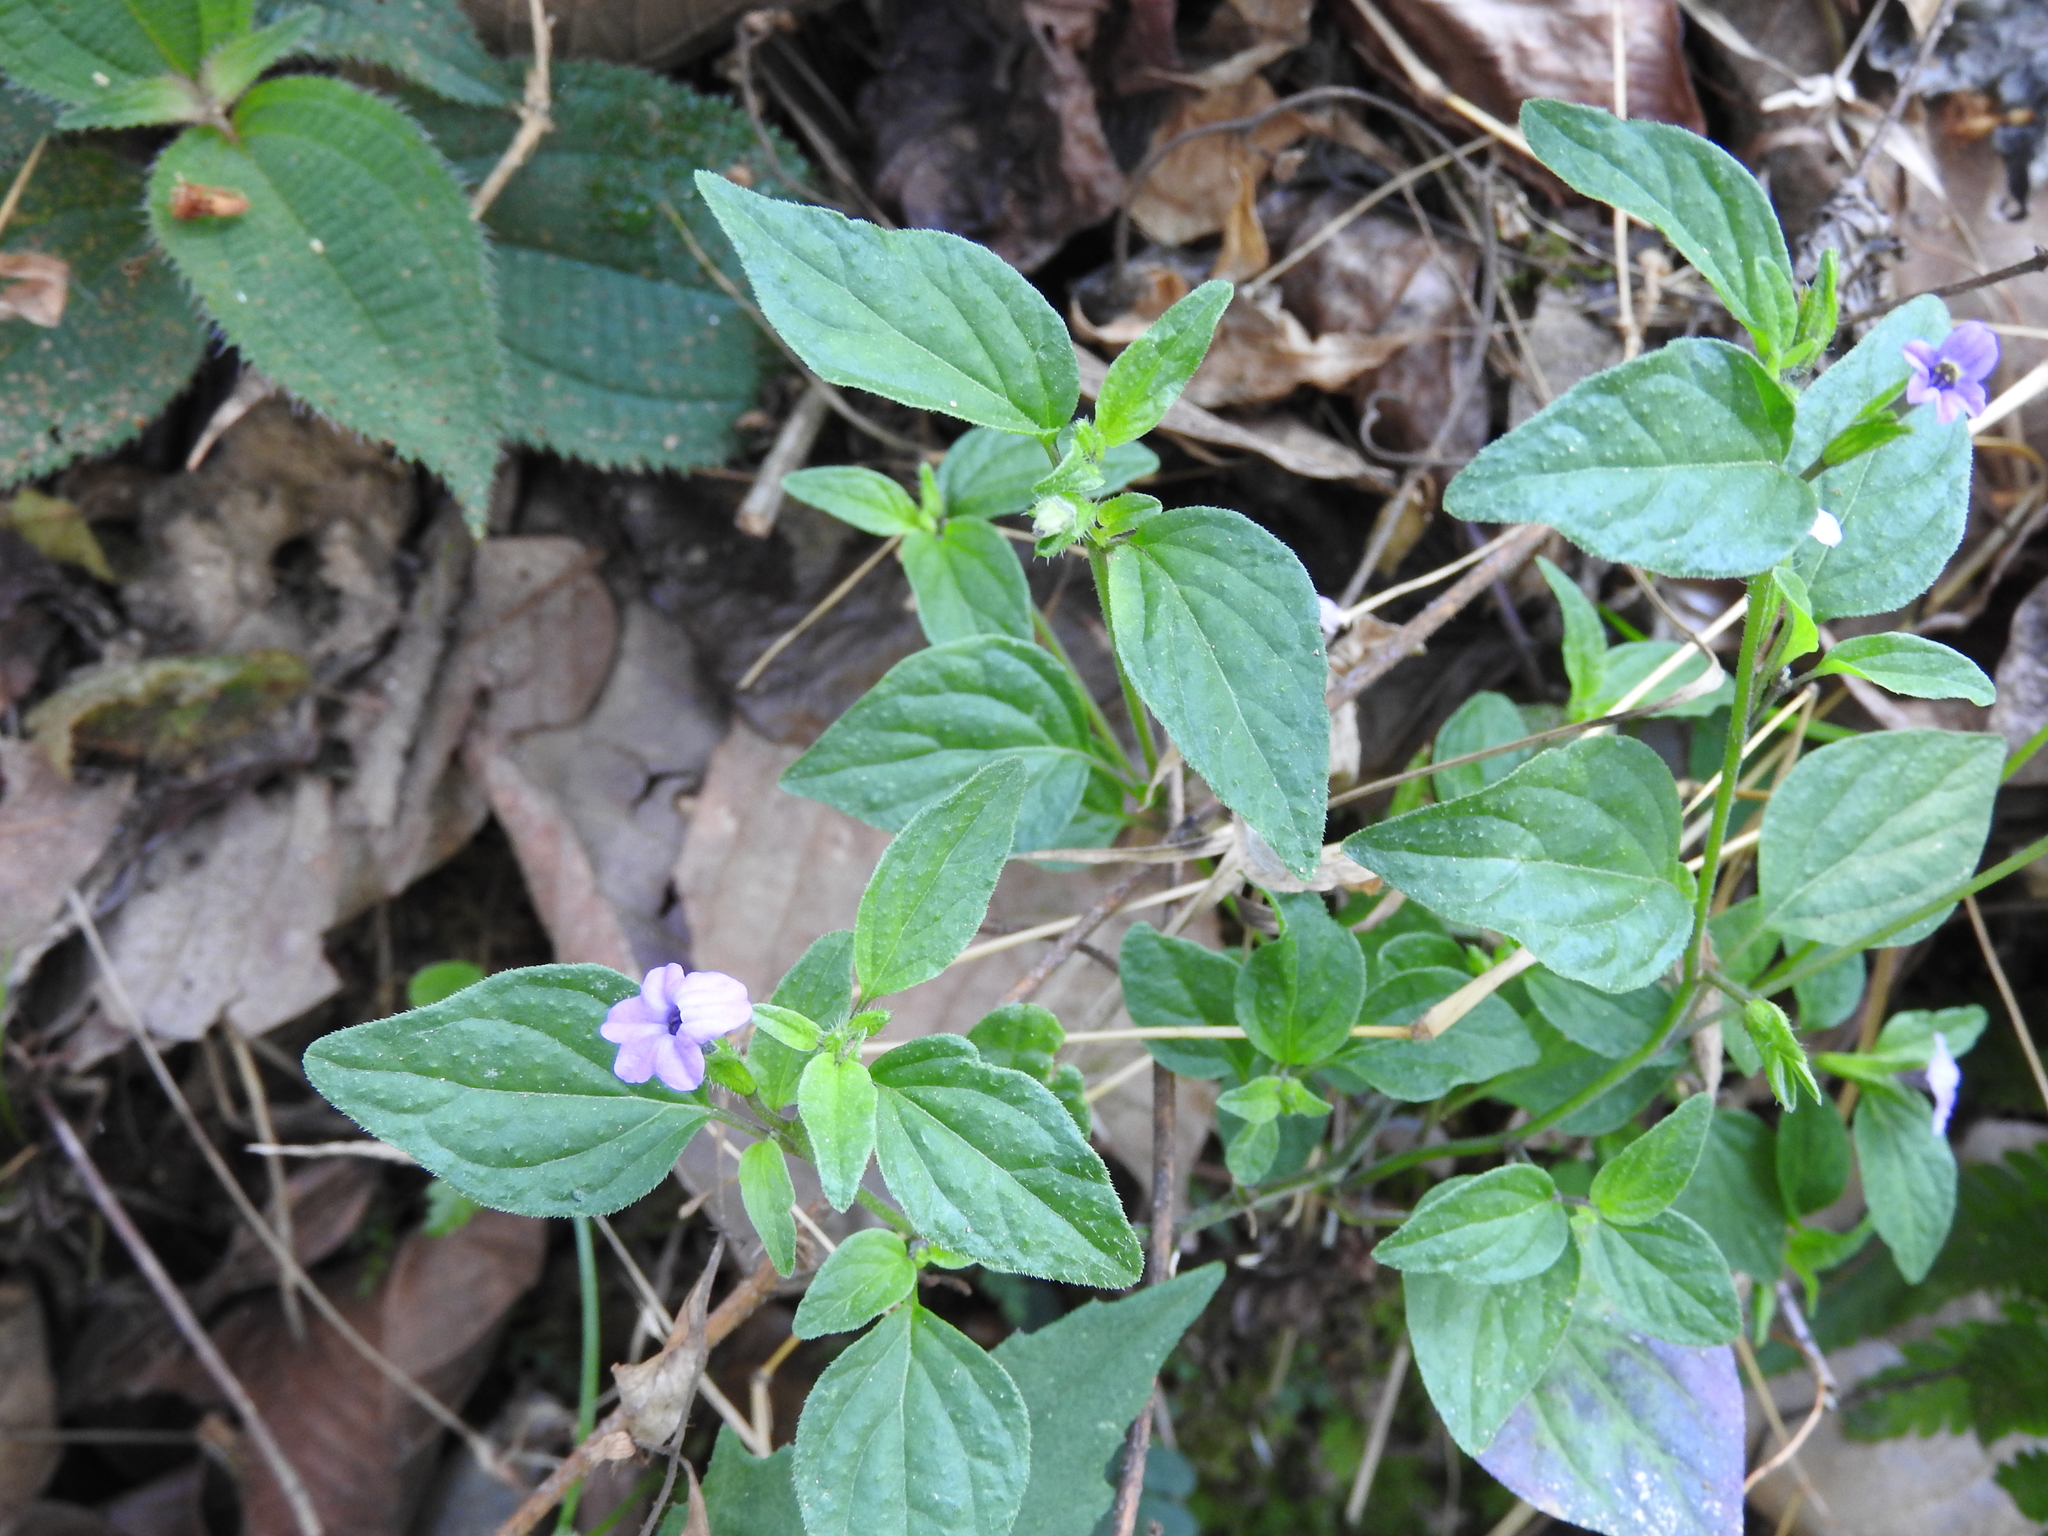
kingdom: Plantae
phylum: Tracheophyta
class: Magnoliopsida
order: Solanales
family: Solanaceae
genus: Browallia
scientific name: Browallia americana
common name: Jamaican forget-me-not
